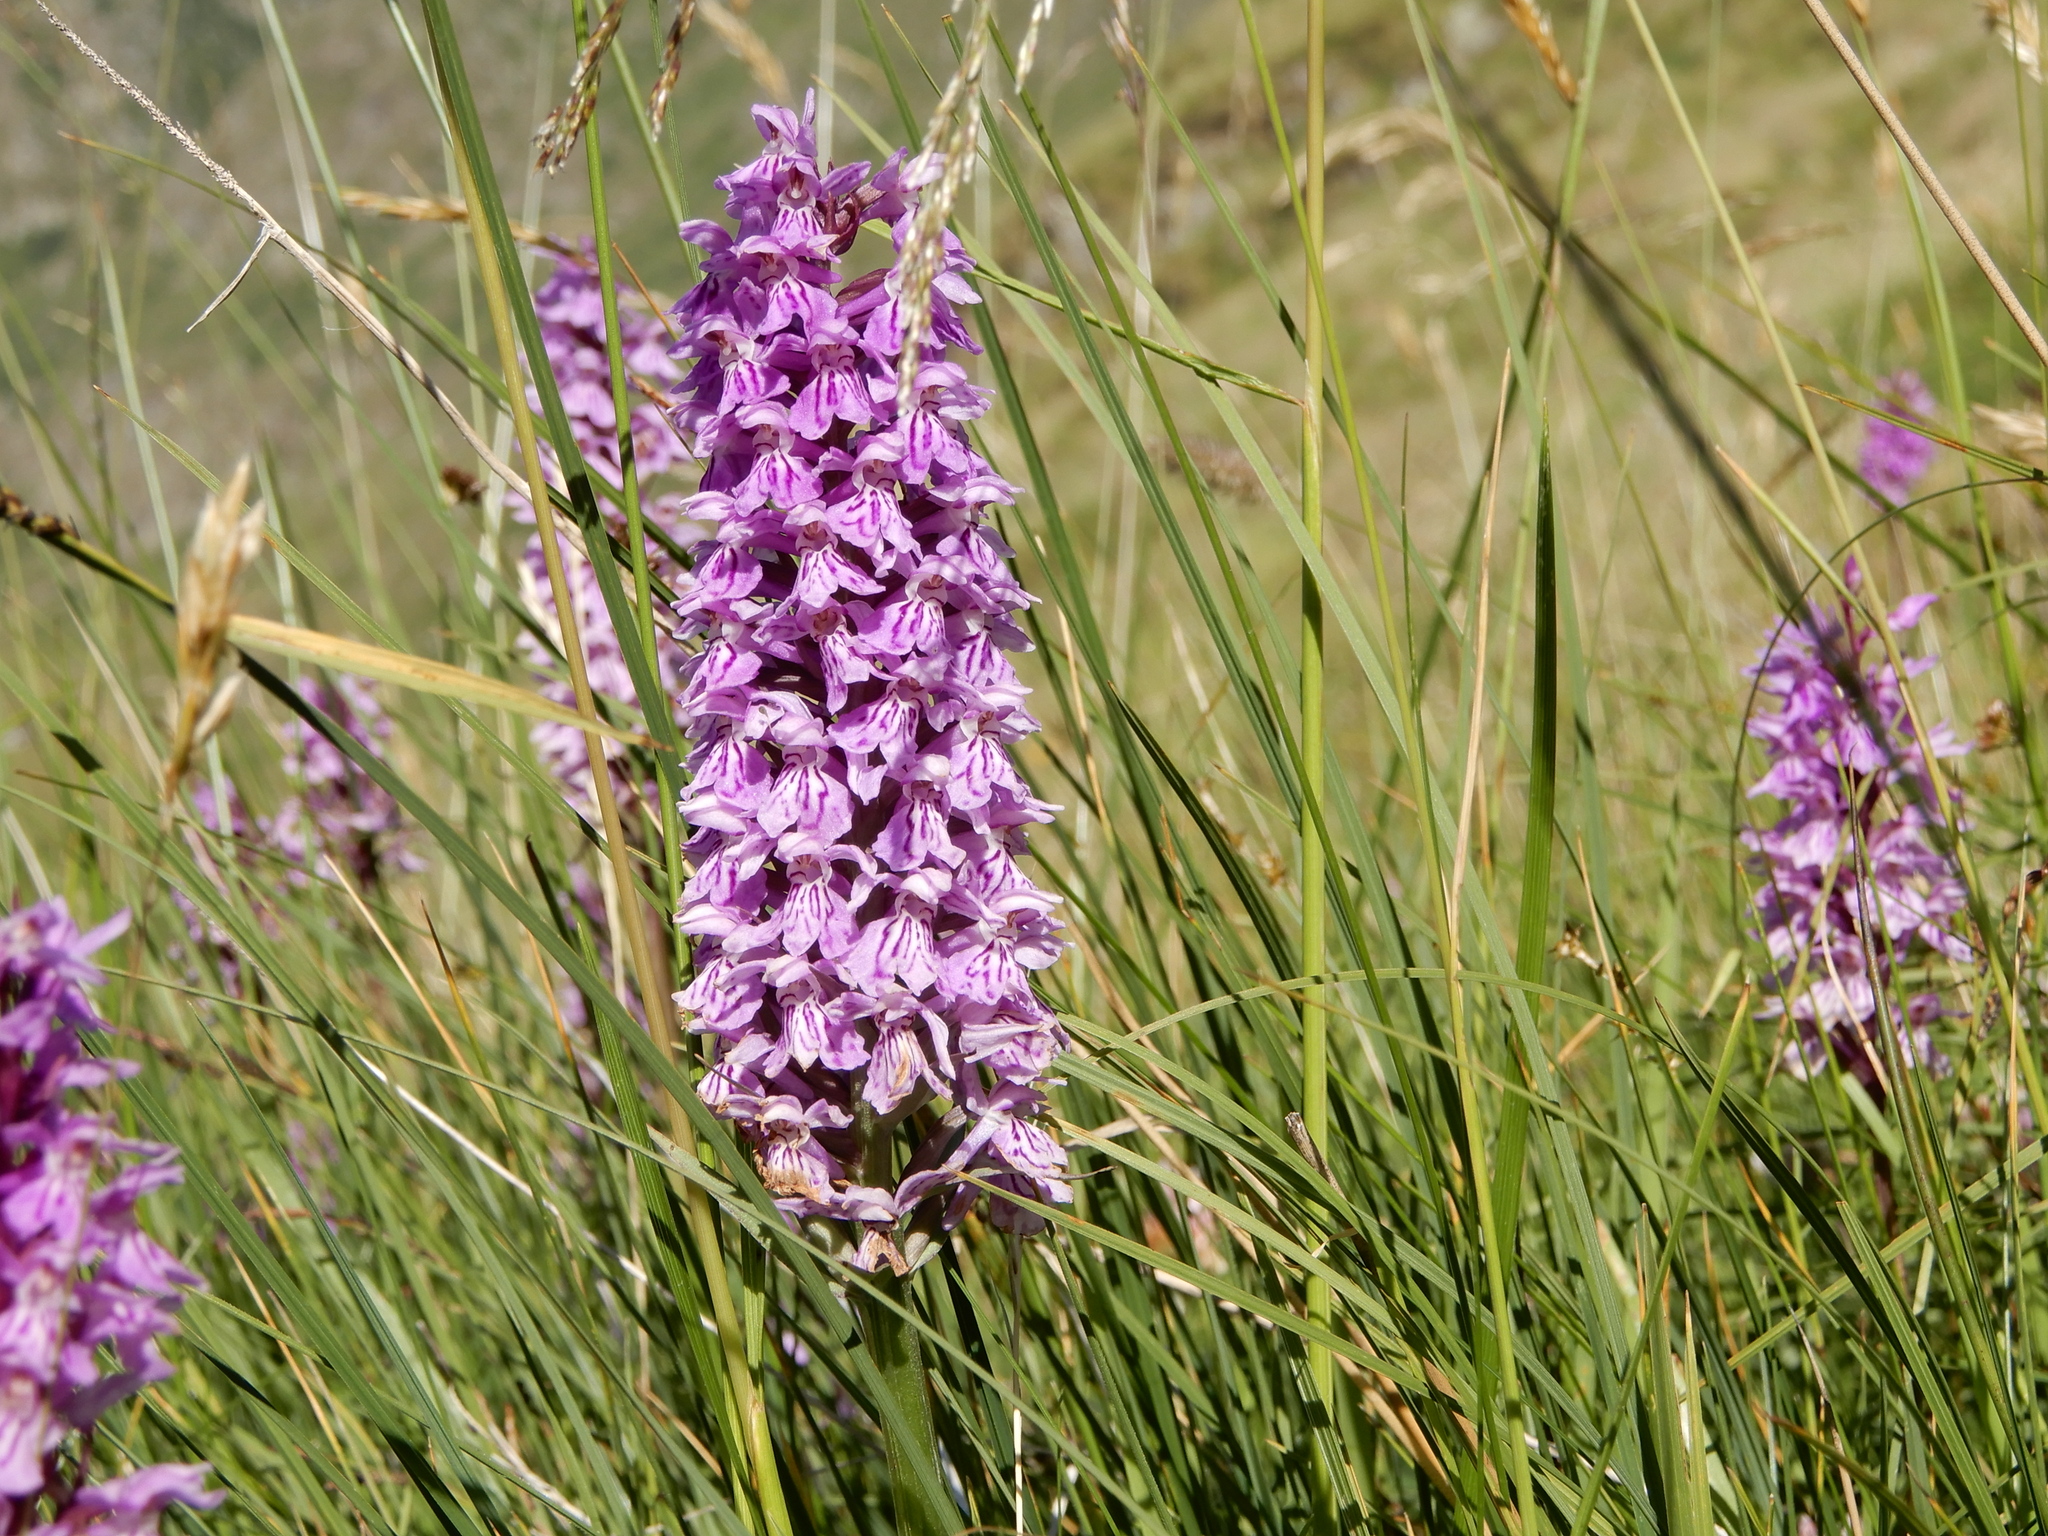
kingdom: Plantae
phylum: Tracheophyta
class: Liliopsida
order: Asparagales
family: Orchidaceae
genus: Dactylorhiza
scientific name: Dactylorhiza maculata
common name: Heath spotted-orchid
